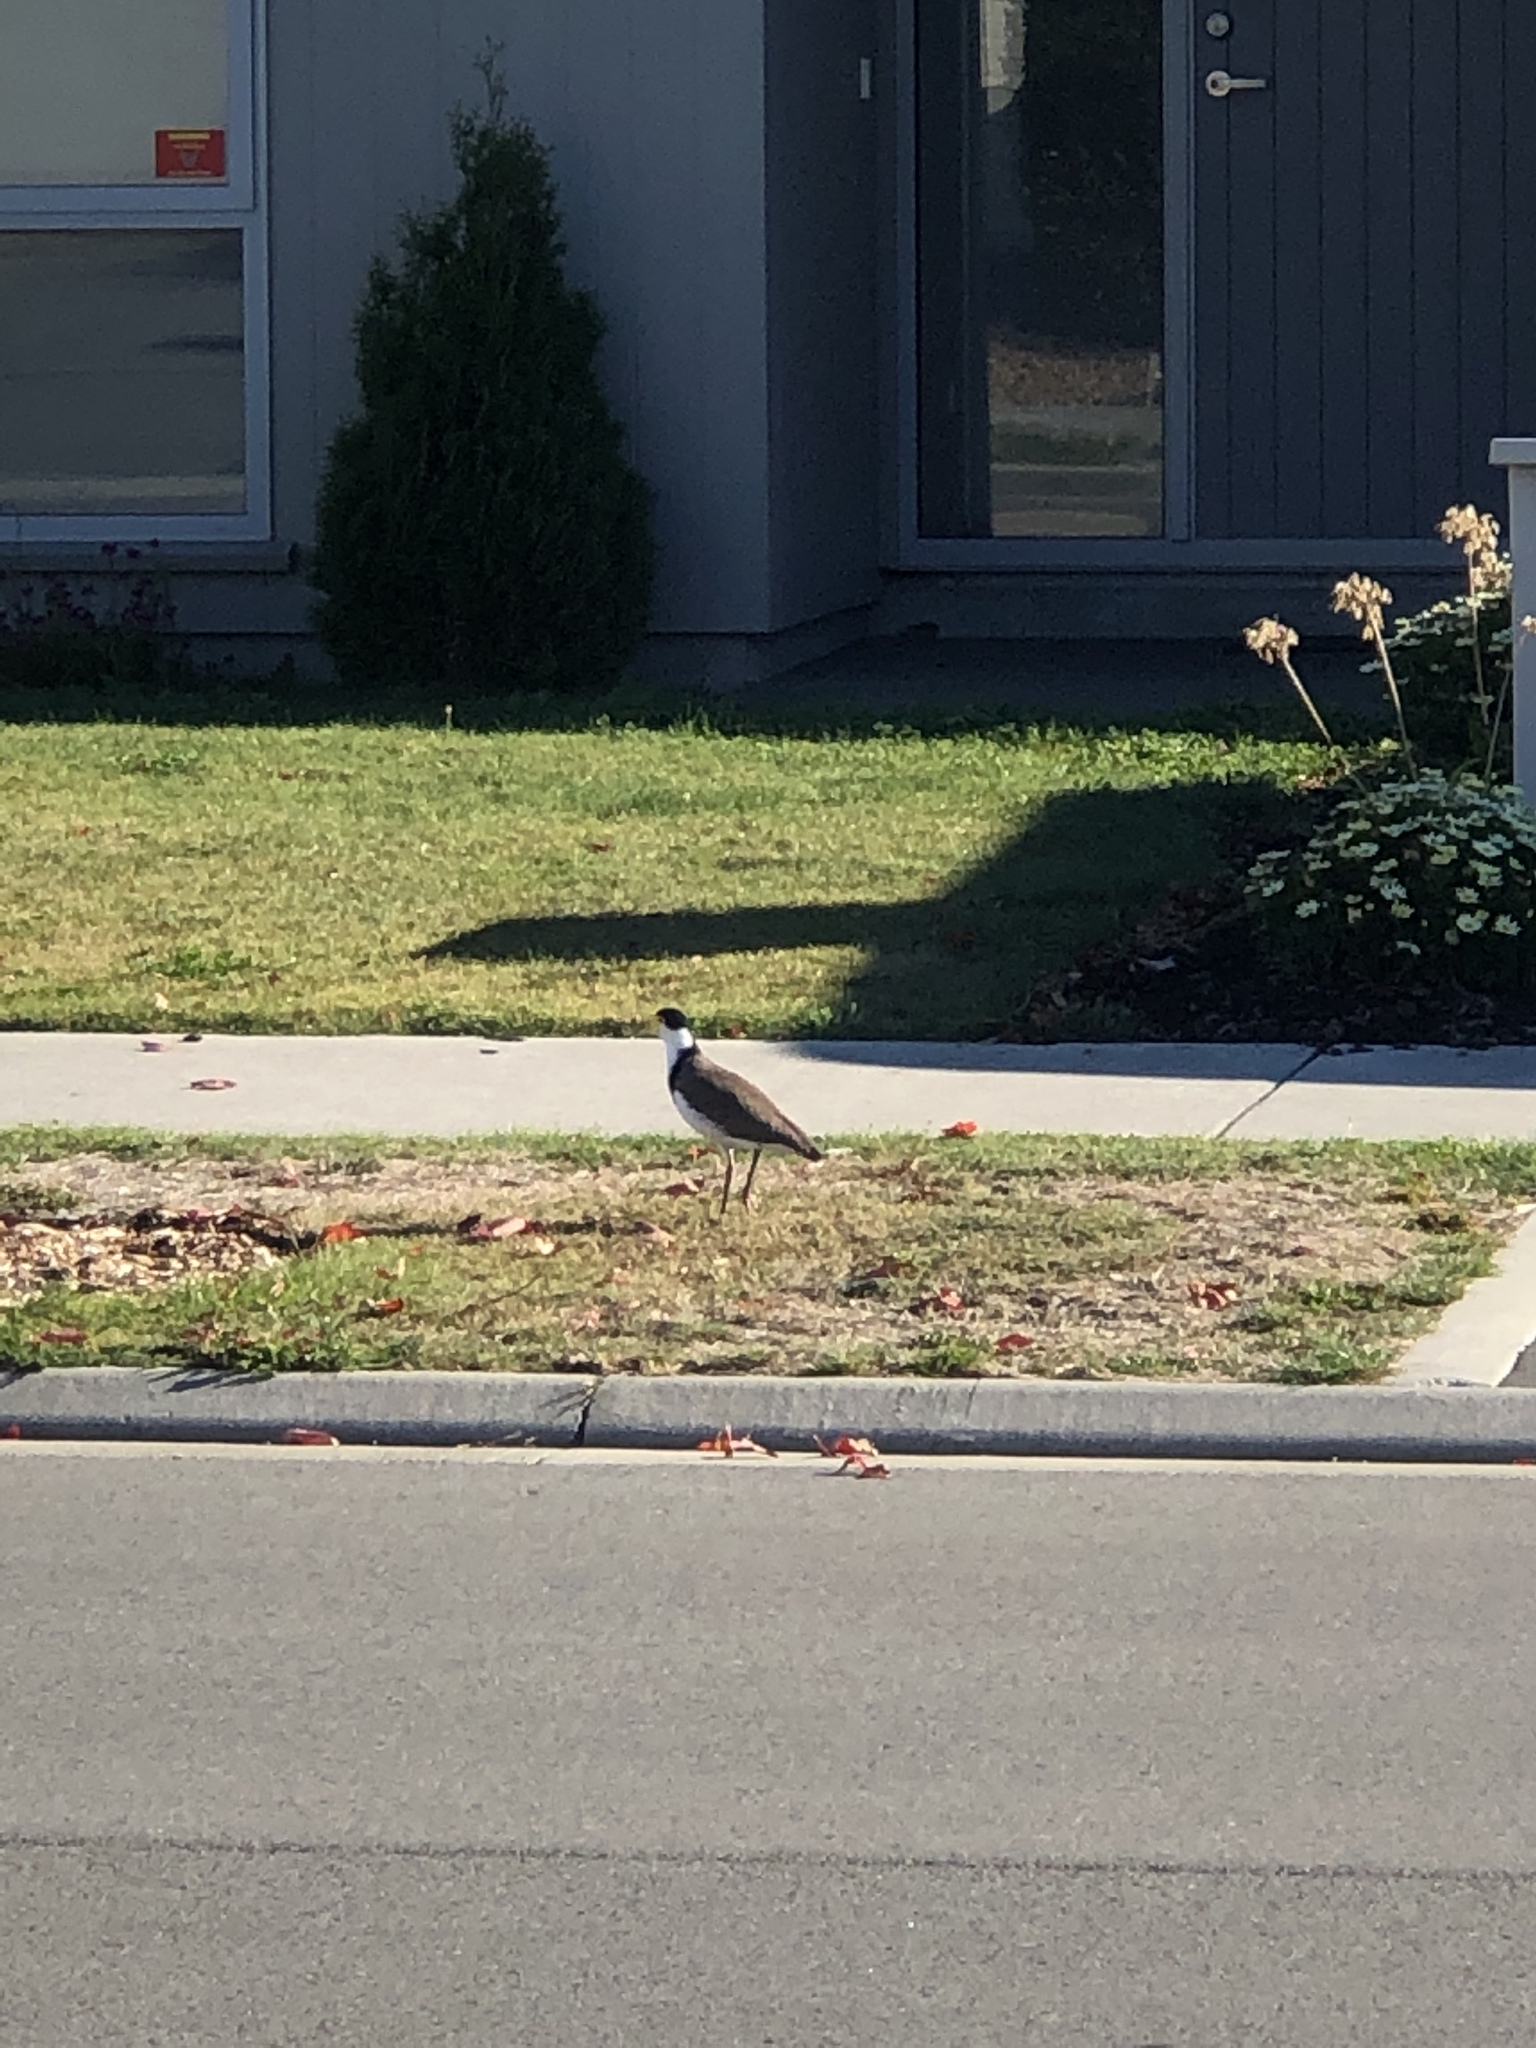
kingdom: Animalia
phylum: Chordata
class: Aves
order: Charadriiformes
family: Charadriidae
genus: Vanellus
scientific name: Vanellus miles
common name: Masked lapwing
